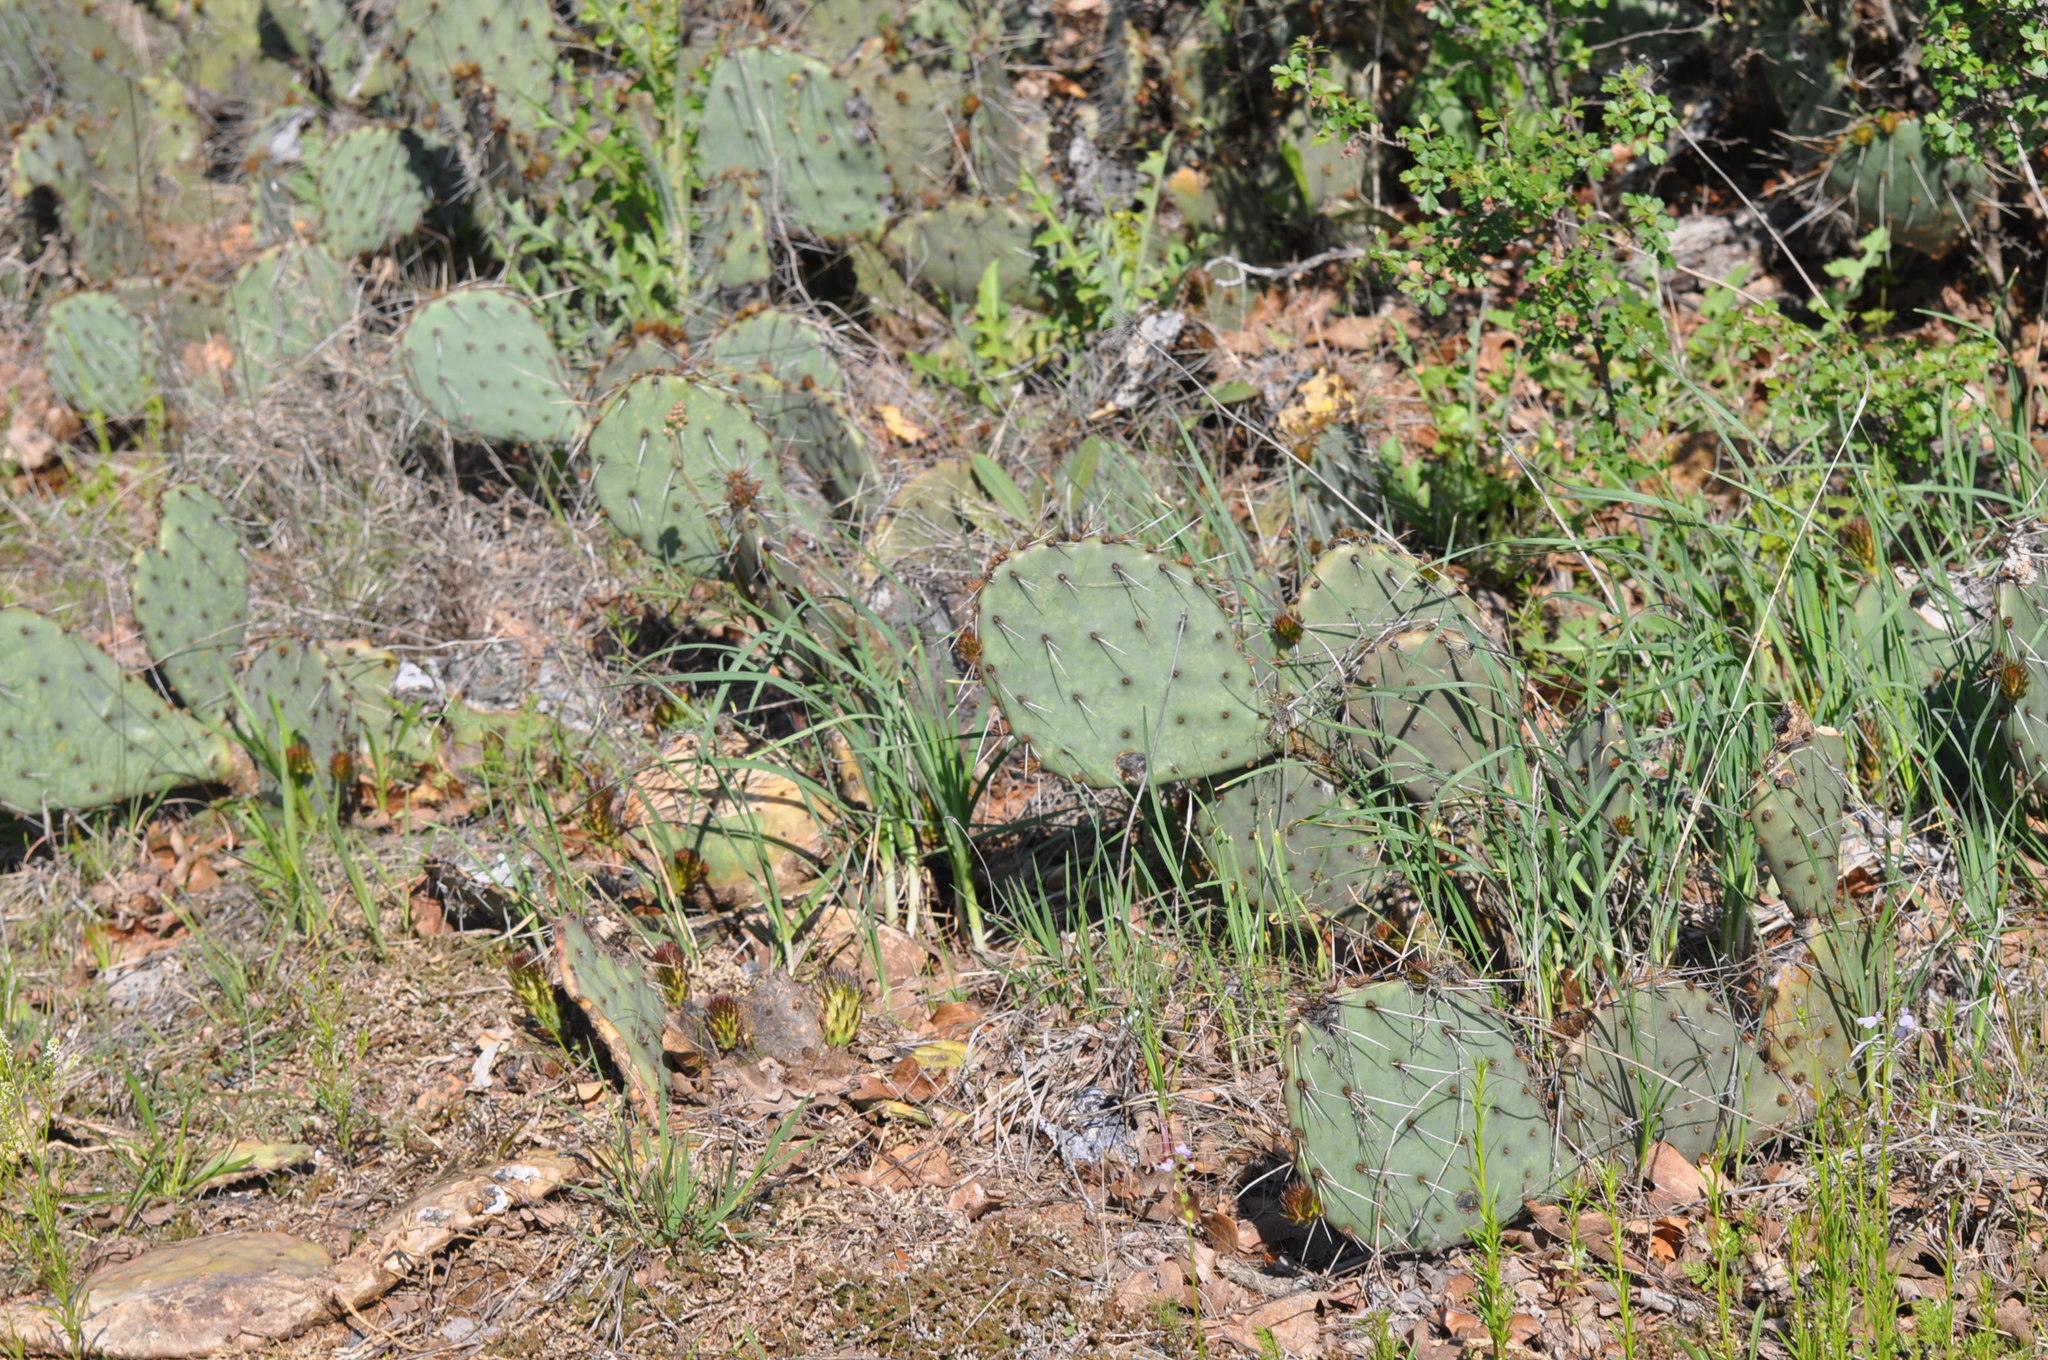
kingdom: Plantae
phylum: Tracheophyta
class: Magnoliopsida
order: Caryophyllales
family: Cactaceae
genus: Opuntia
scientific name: Opuntia
